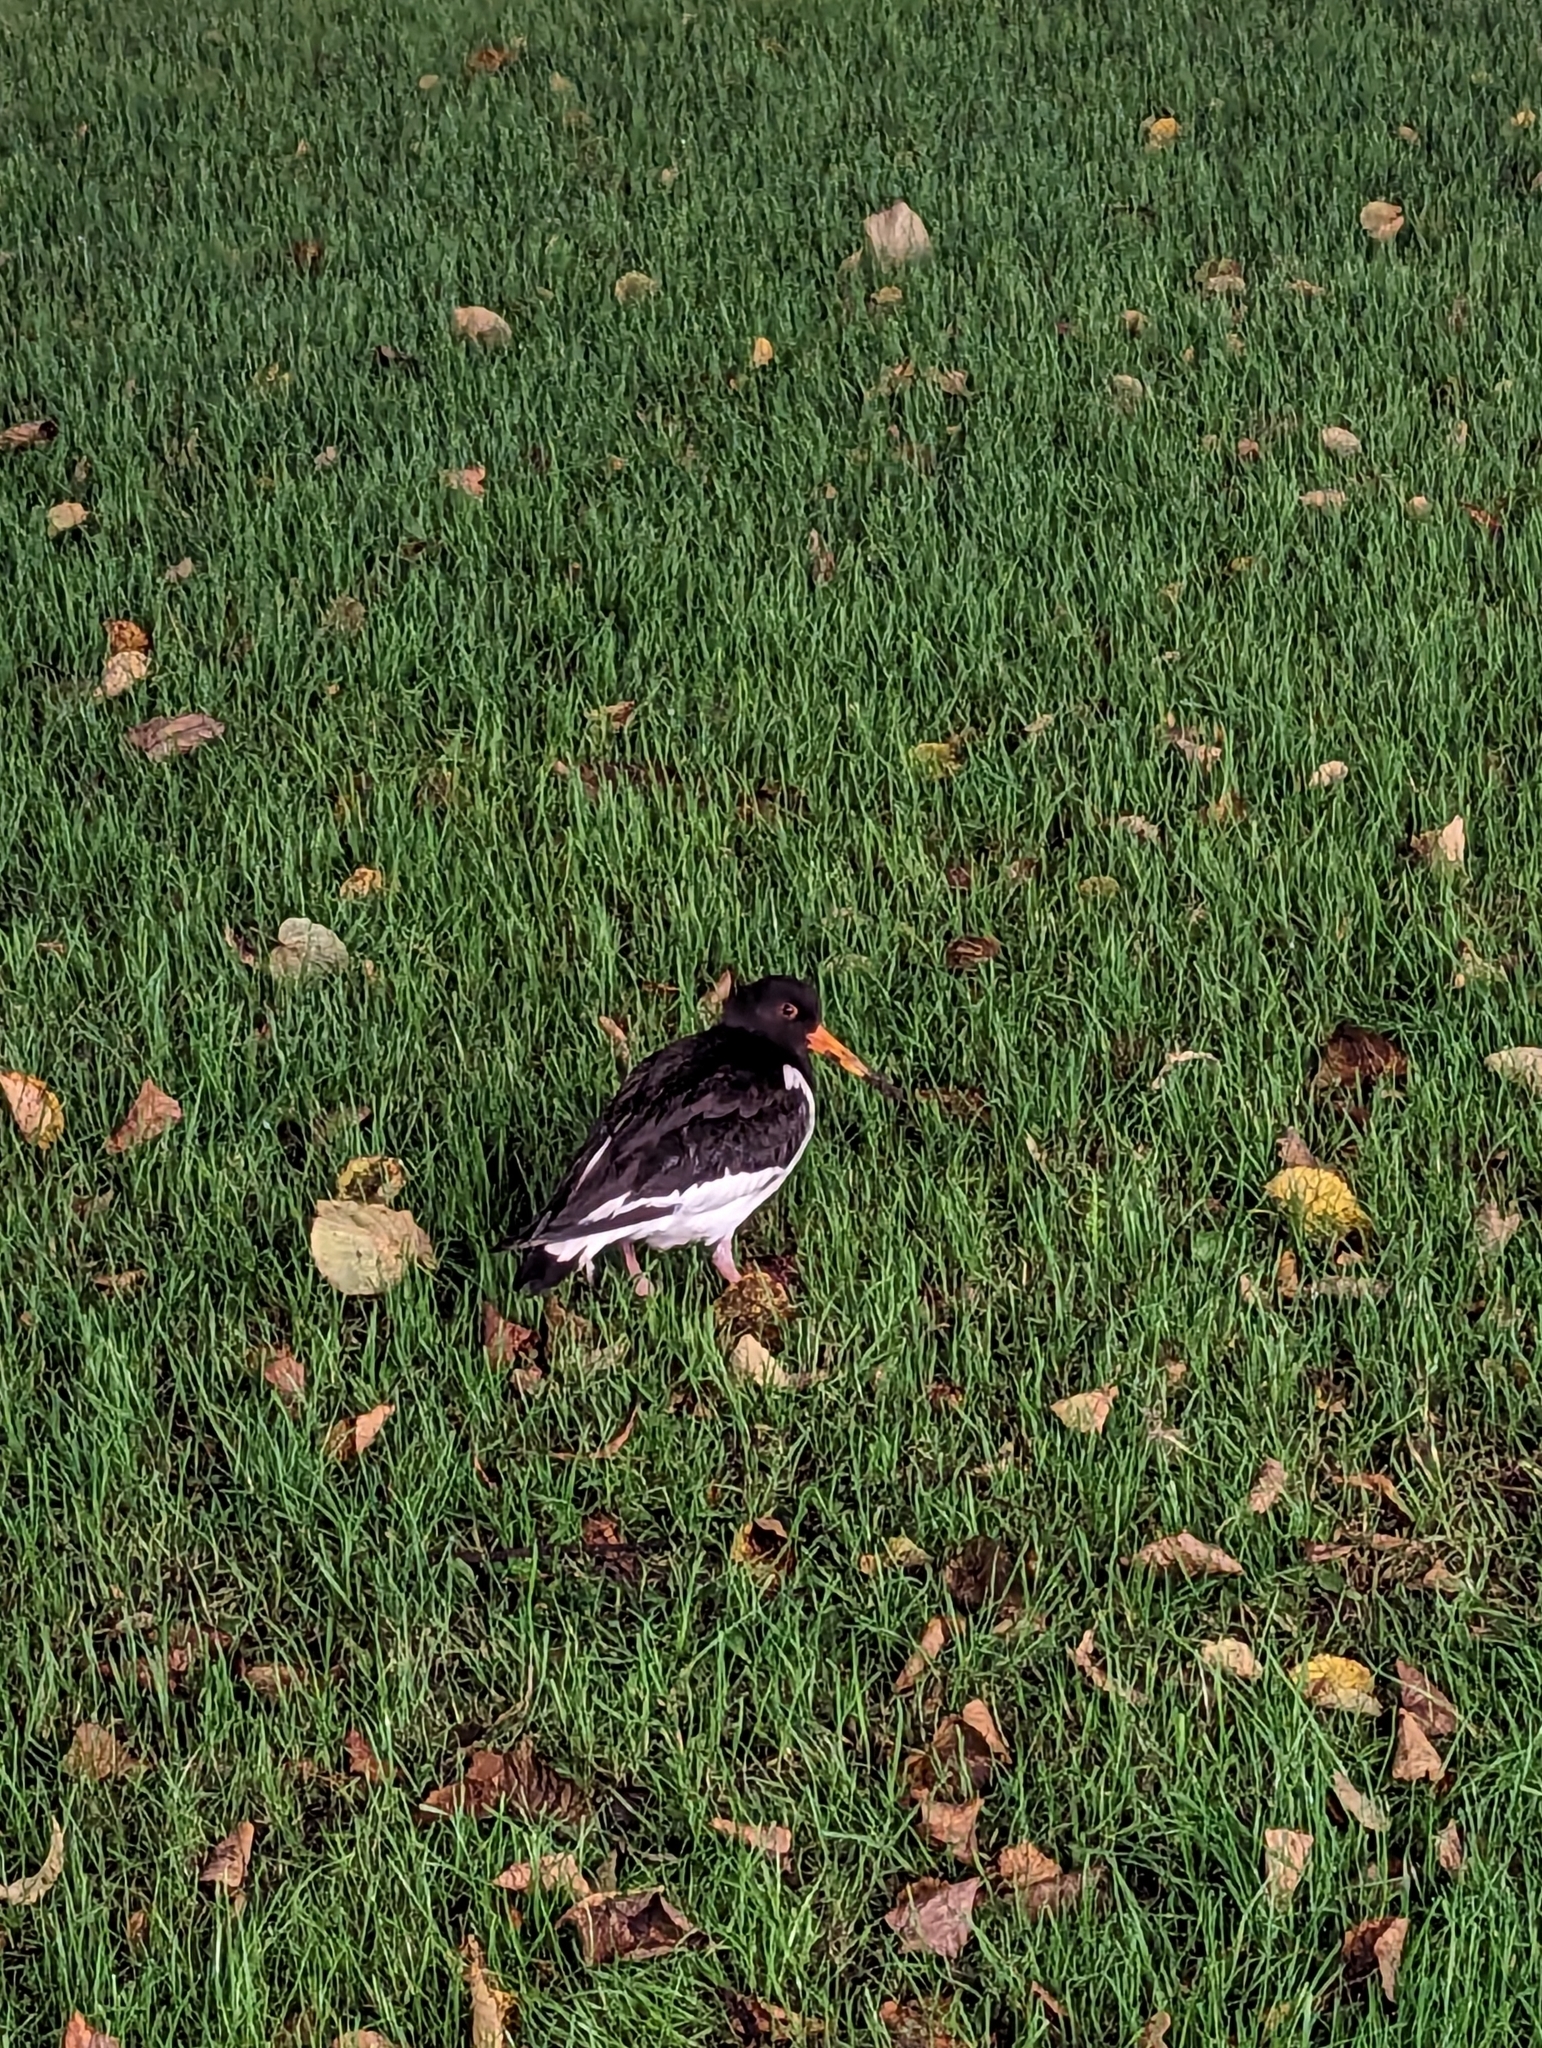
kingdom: Animalia
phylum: Chordata
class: Aves
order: Charadriiformes
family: Haematopodidae
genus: Haematopus
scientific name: Haematopus ostralegus
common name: Eurasian oystercatcher
